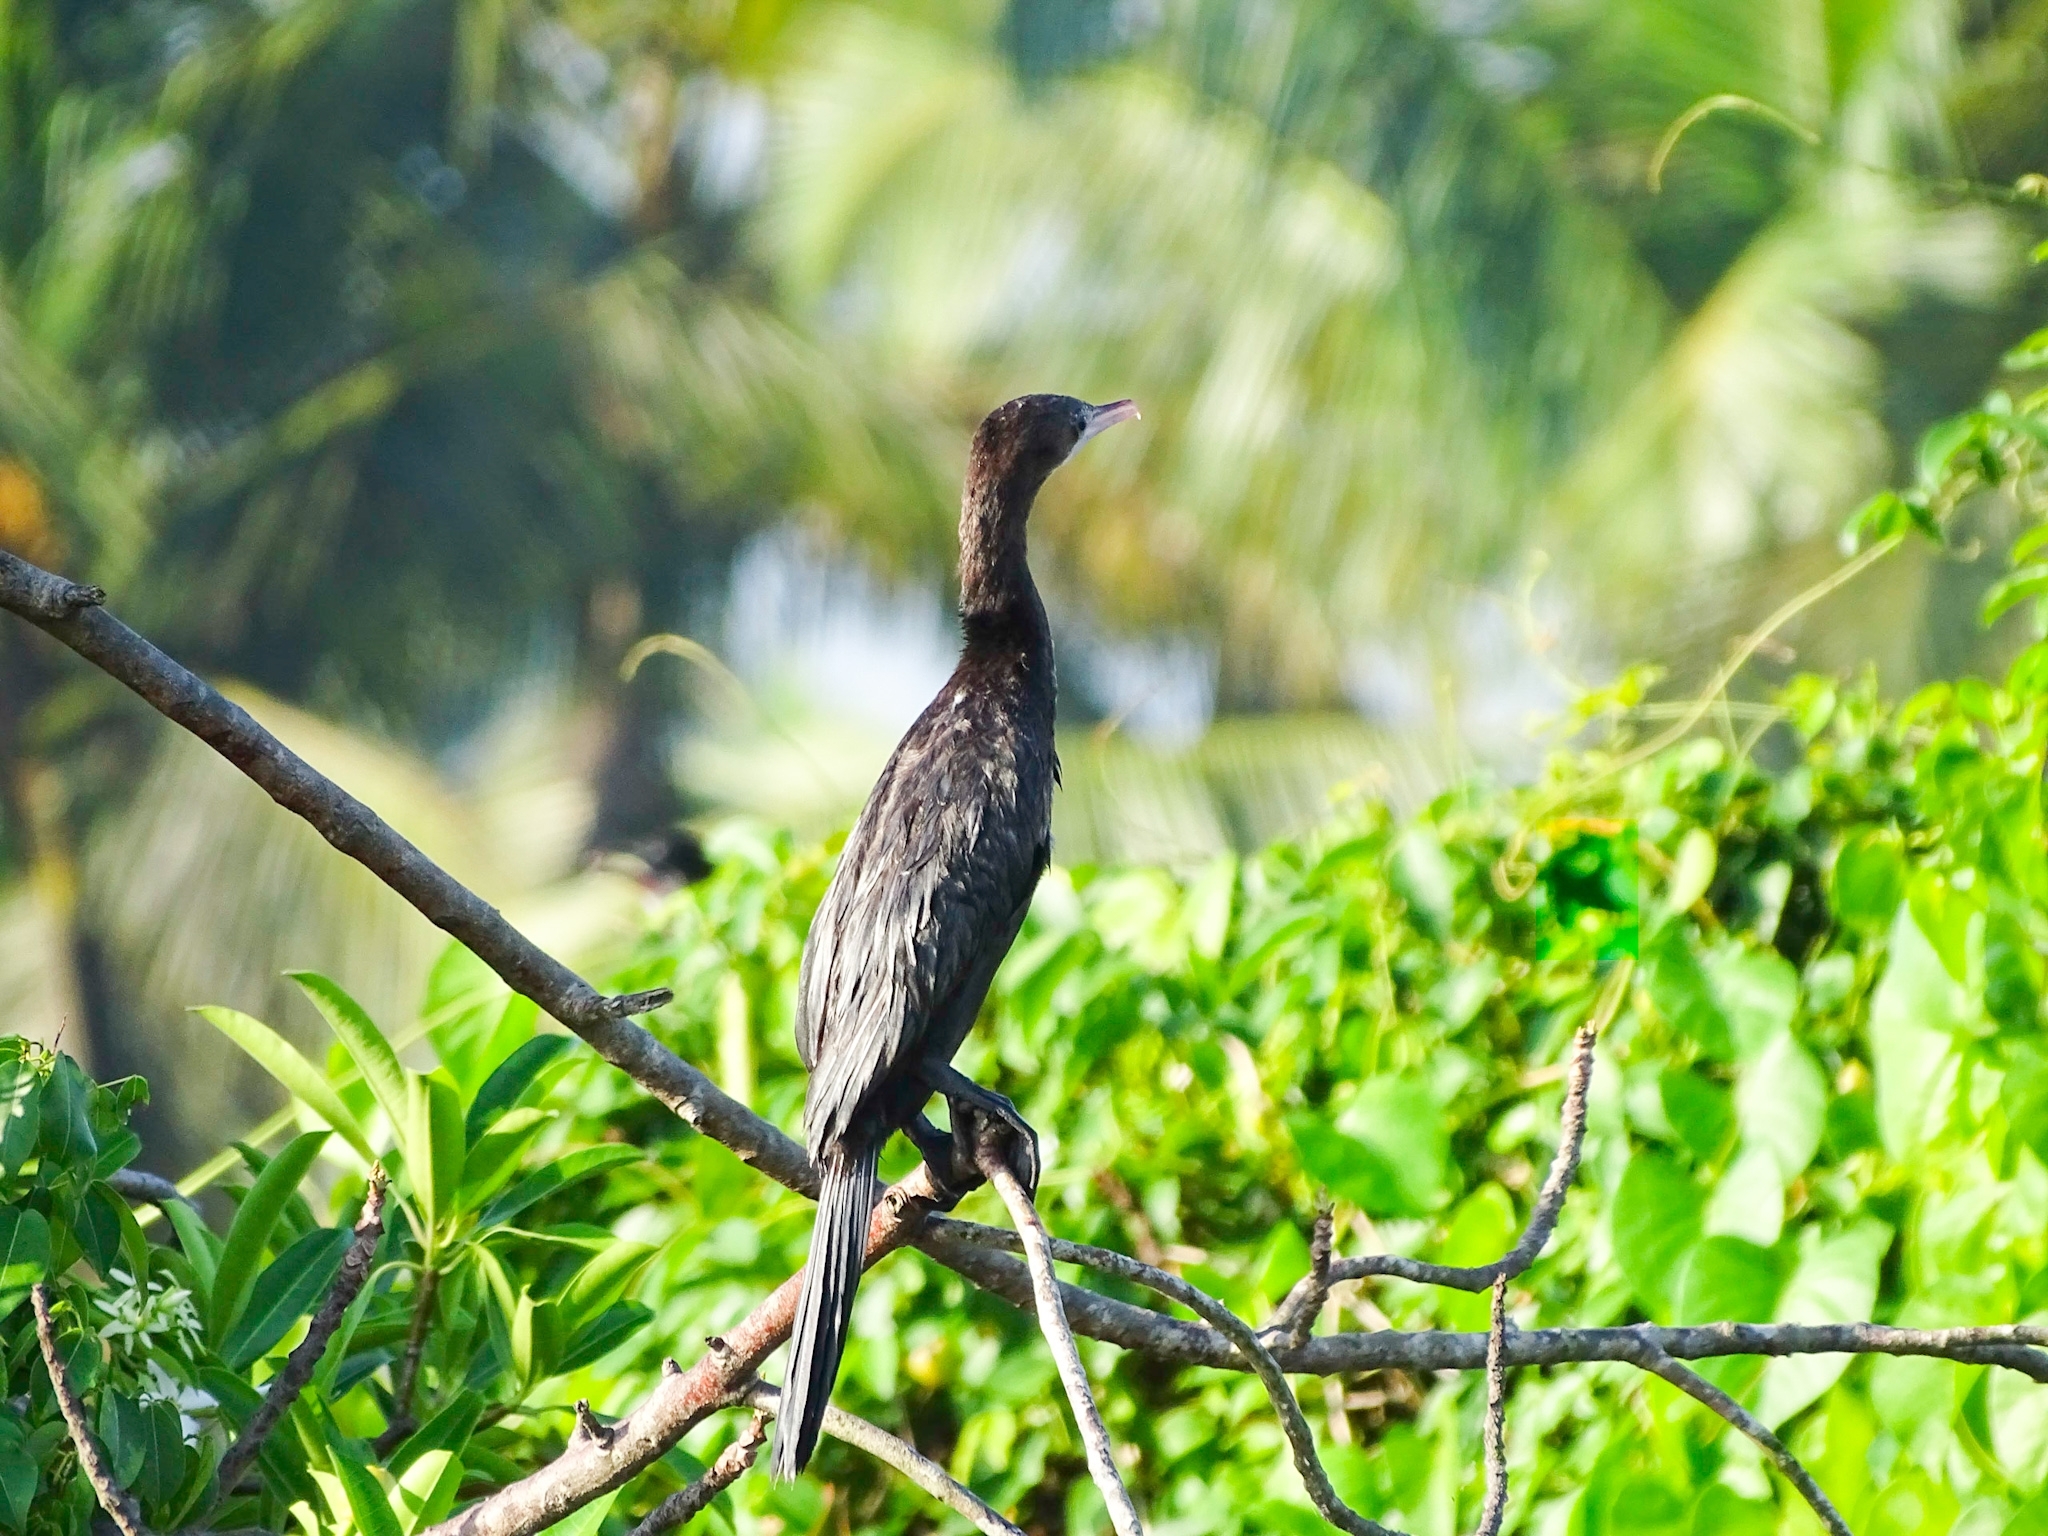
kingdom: Animalia
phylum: Chordata
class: Aves
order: Suliformes
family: Phalacrocoracidae
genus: Microcarbo
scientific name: Microcarbo niger
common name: Little cormorant
